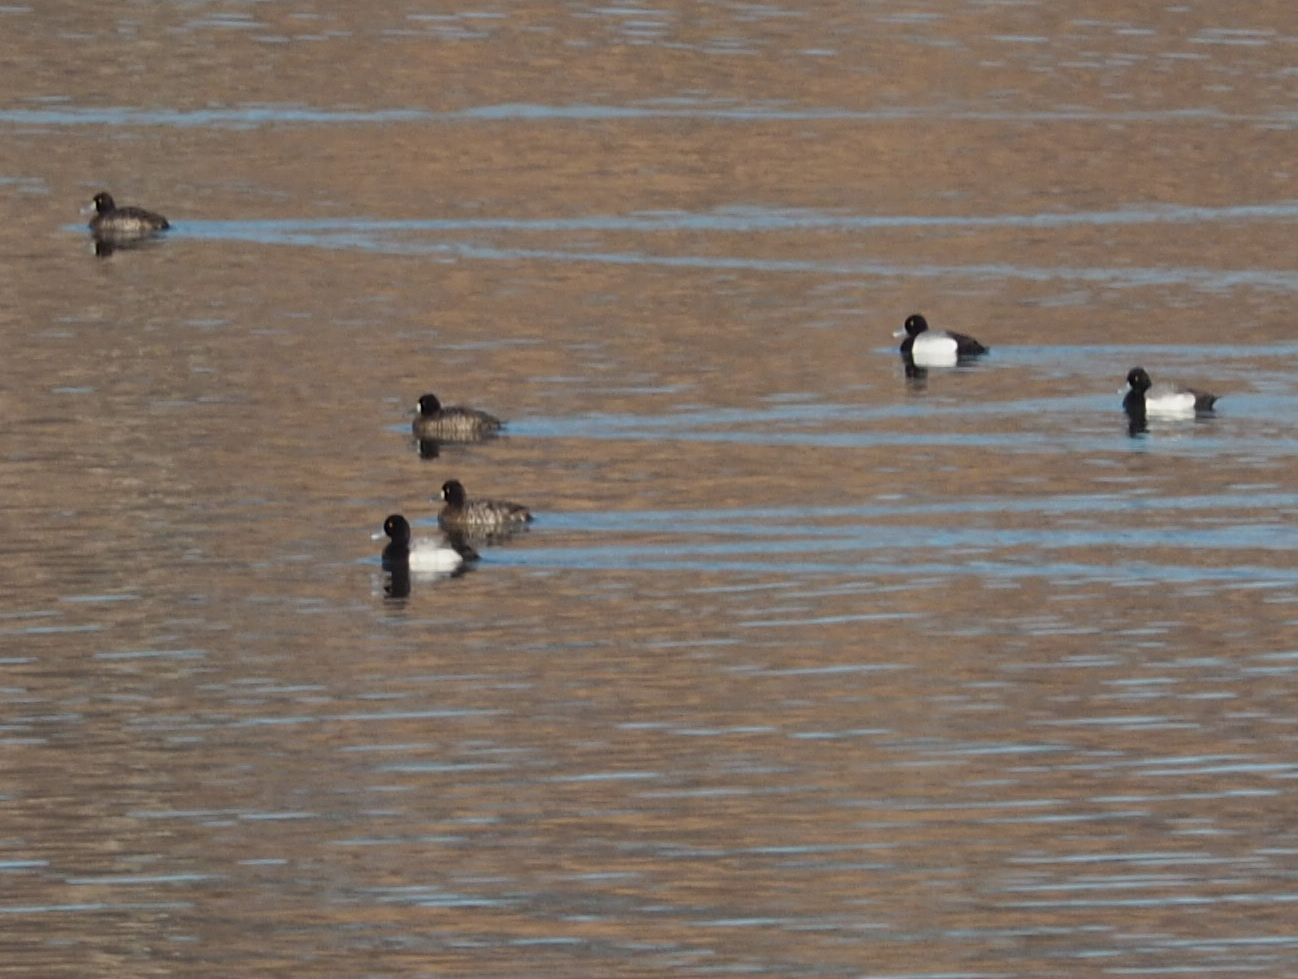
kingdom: Animalia
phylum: Chordata
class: Aves
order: Anseriformes
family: Anatidae
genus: Aythya
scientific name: Aythya affinis
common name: Lesser scaup
